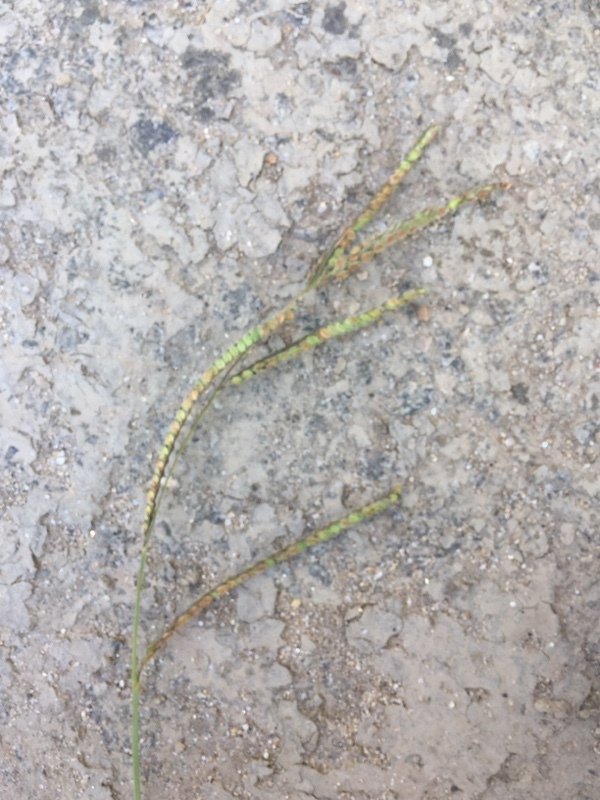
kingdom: Plantae
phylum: Tracheophyta
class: Liliopsida
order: Poales
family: Poaceae
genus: Paspalum
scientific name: Paspalum dilatatum
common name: Dallisgrass
